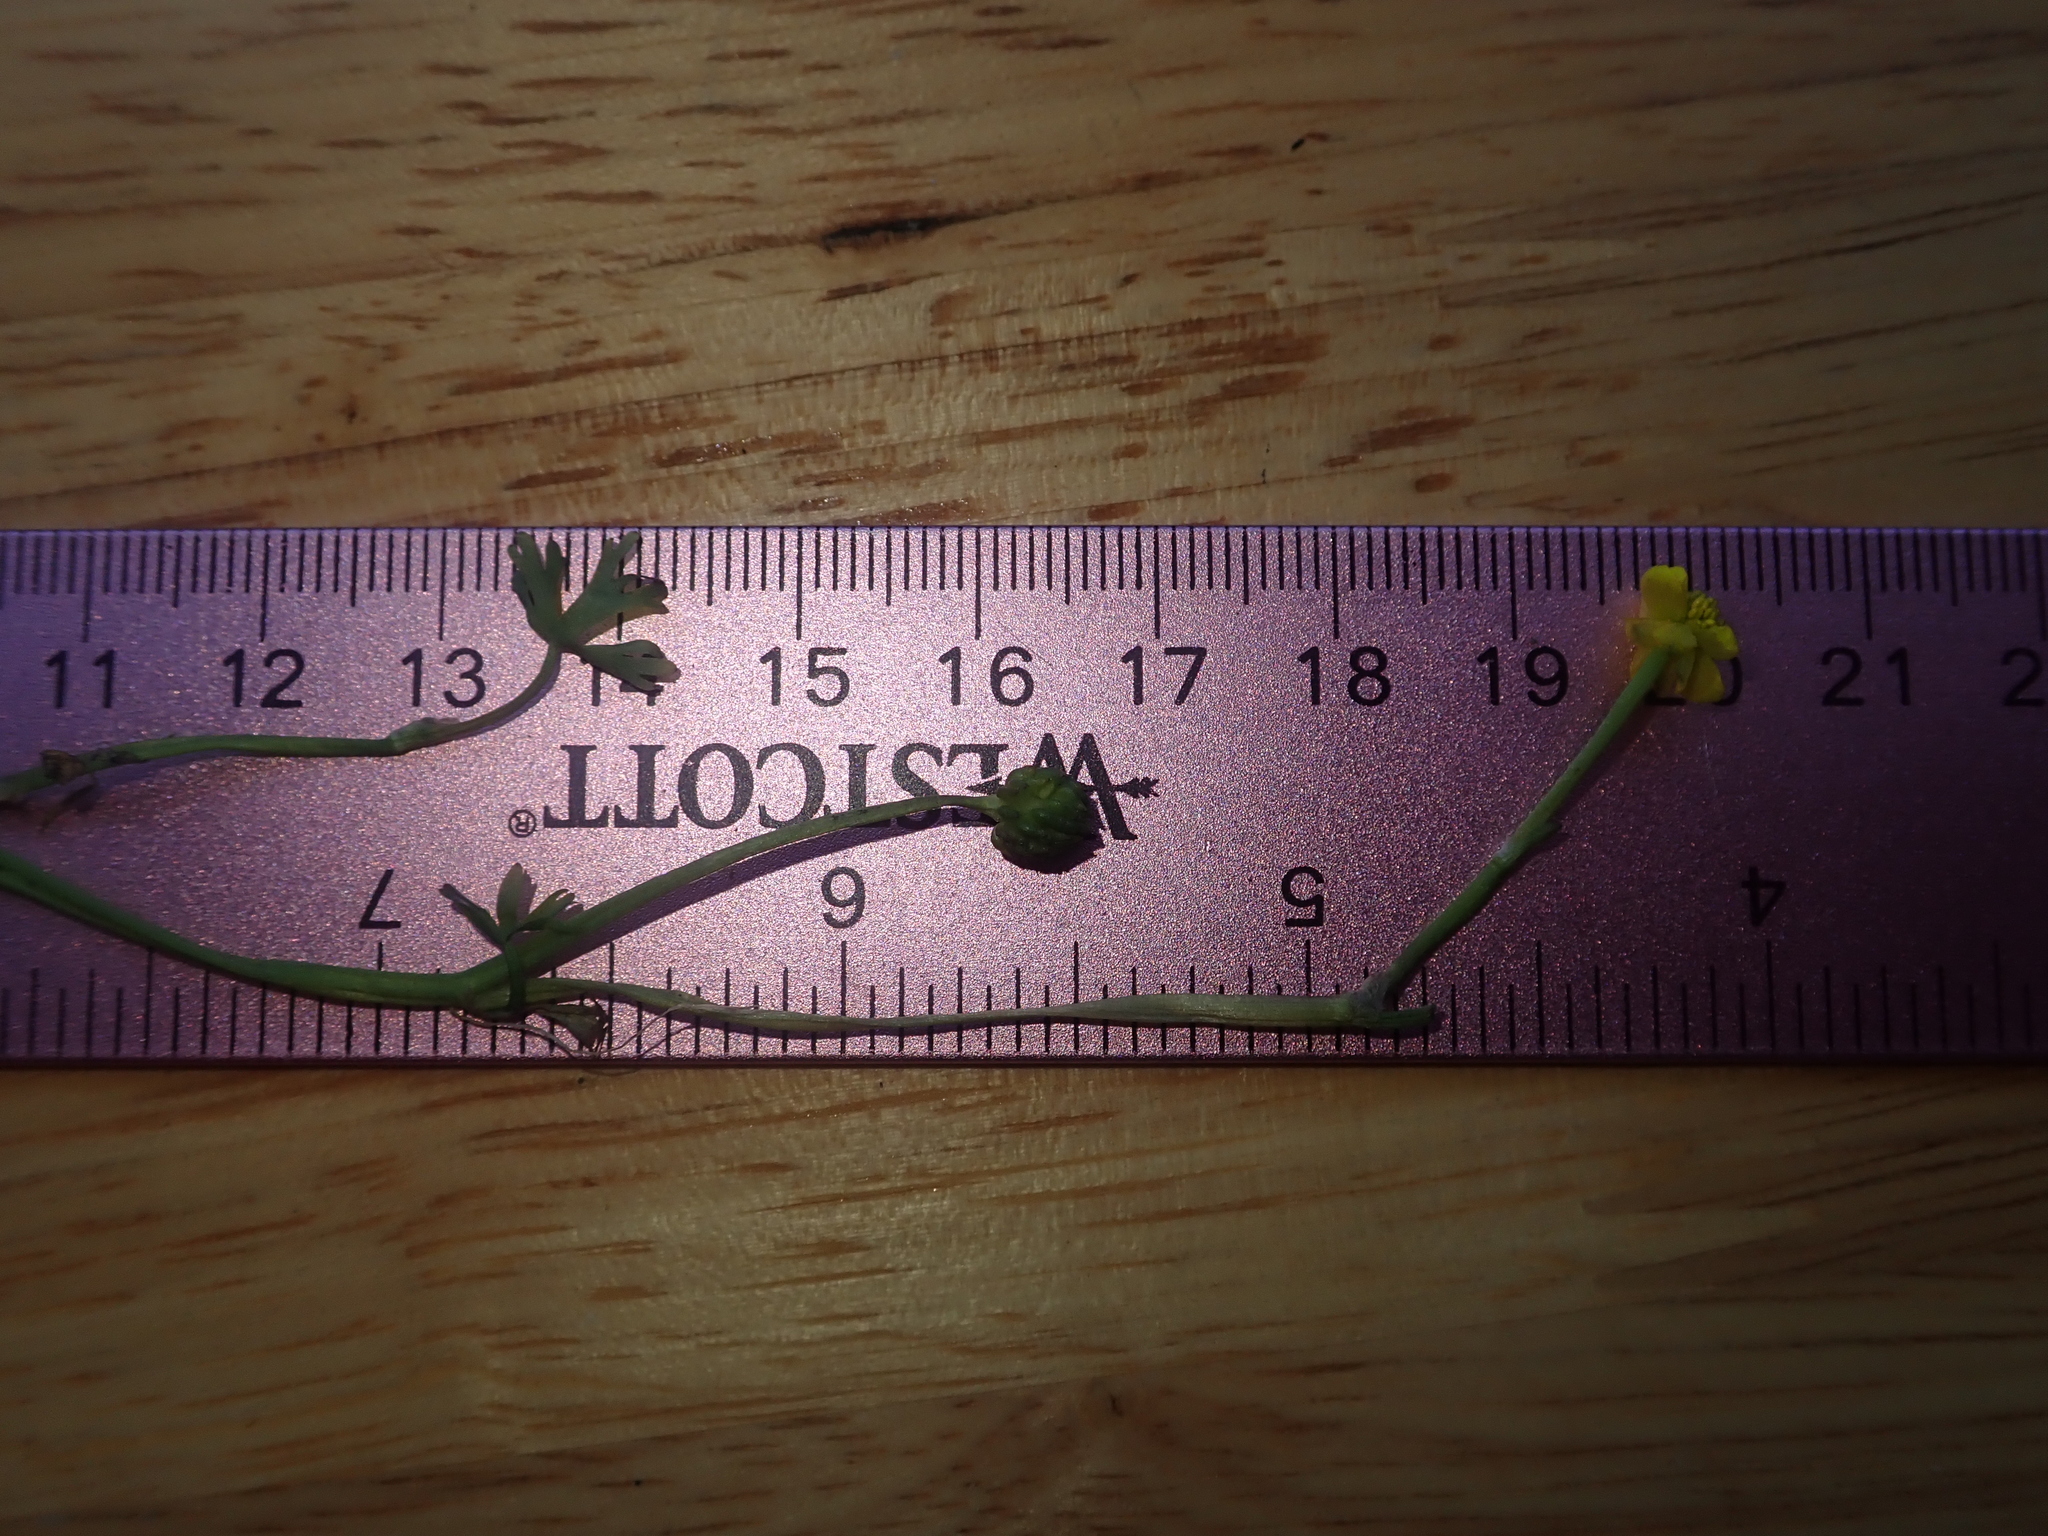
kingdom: Plantae
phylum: Tracheophyta
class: Magnoliopsida
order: Ranunculales
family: Ranunculaceae
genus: Ranunculus
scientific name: Ranunculus gmelinii
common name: Gmelin's buttercup
